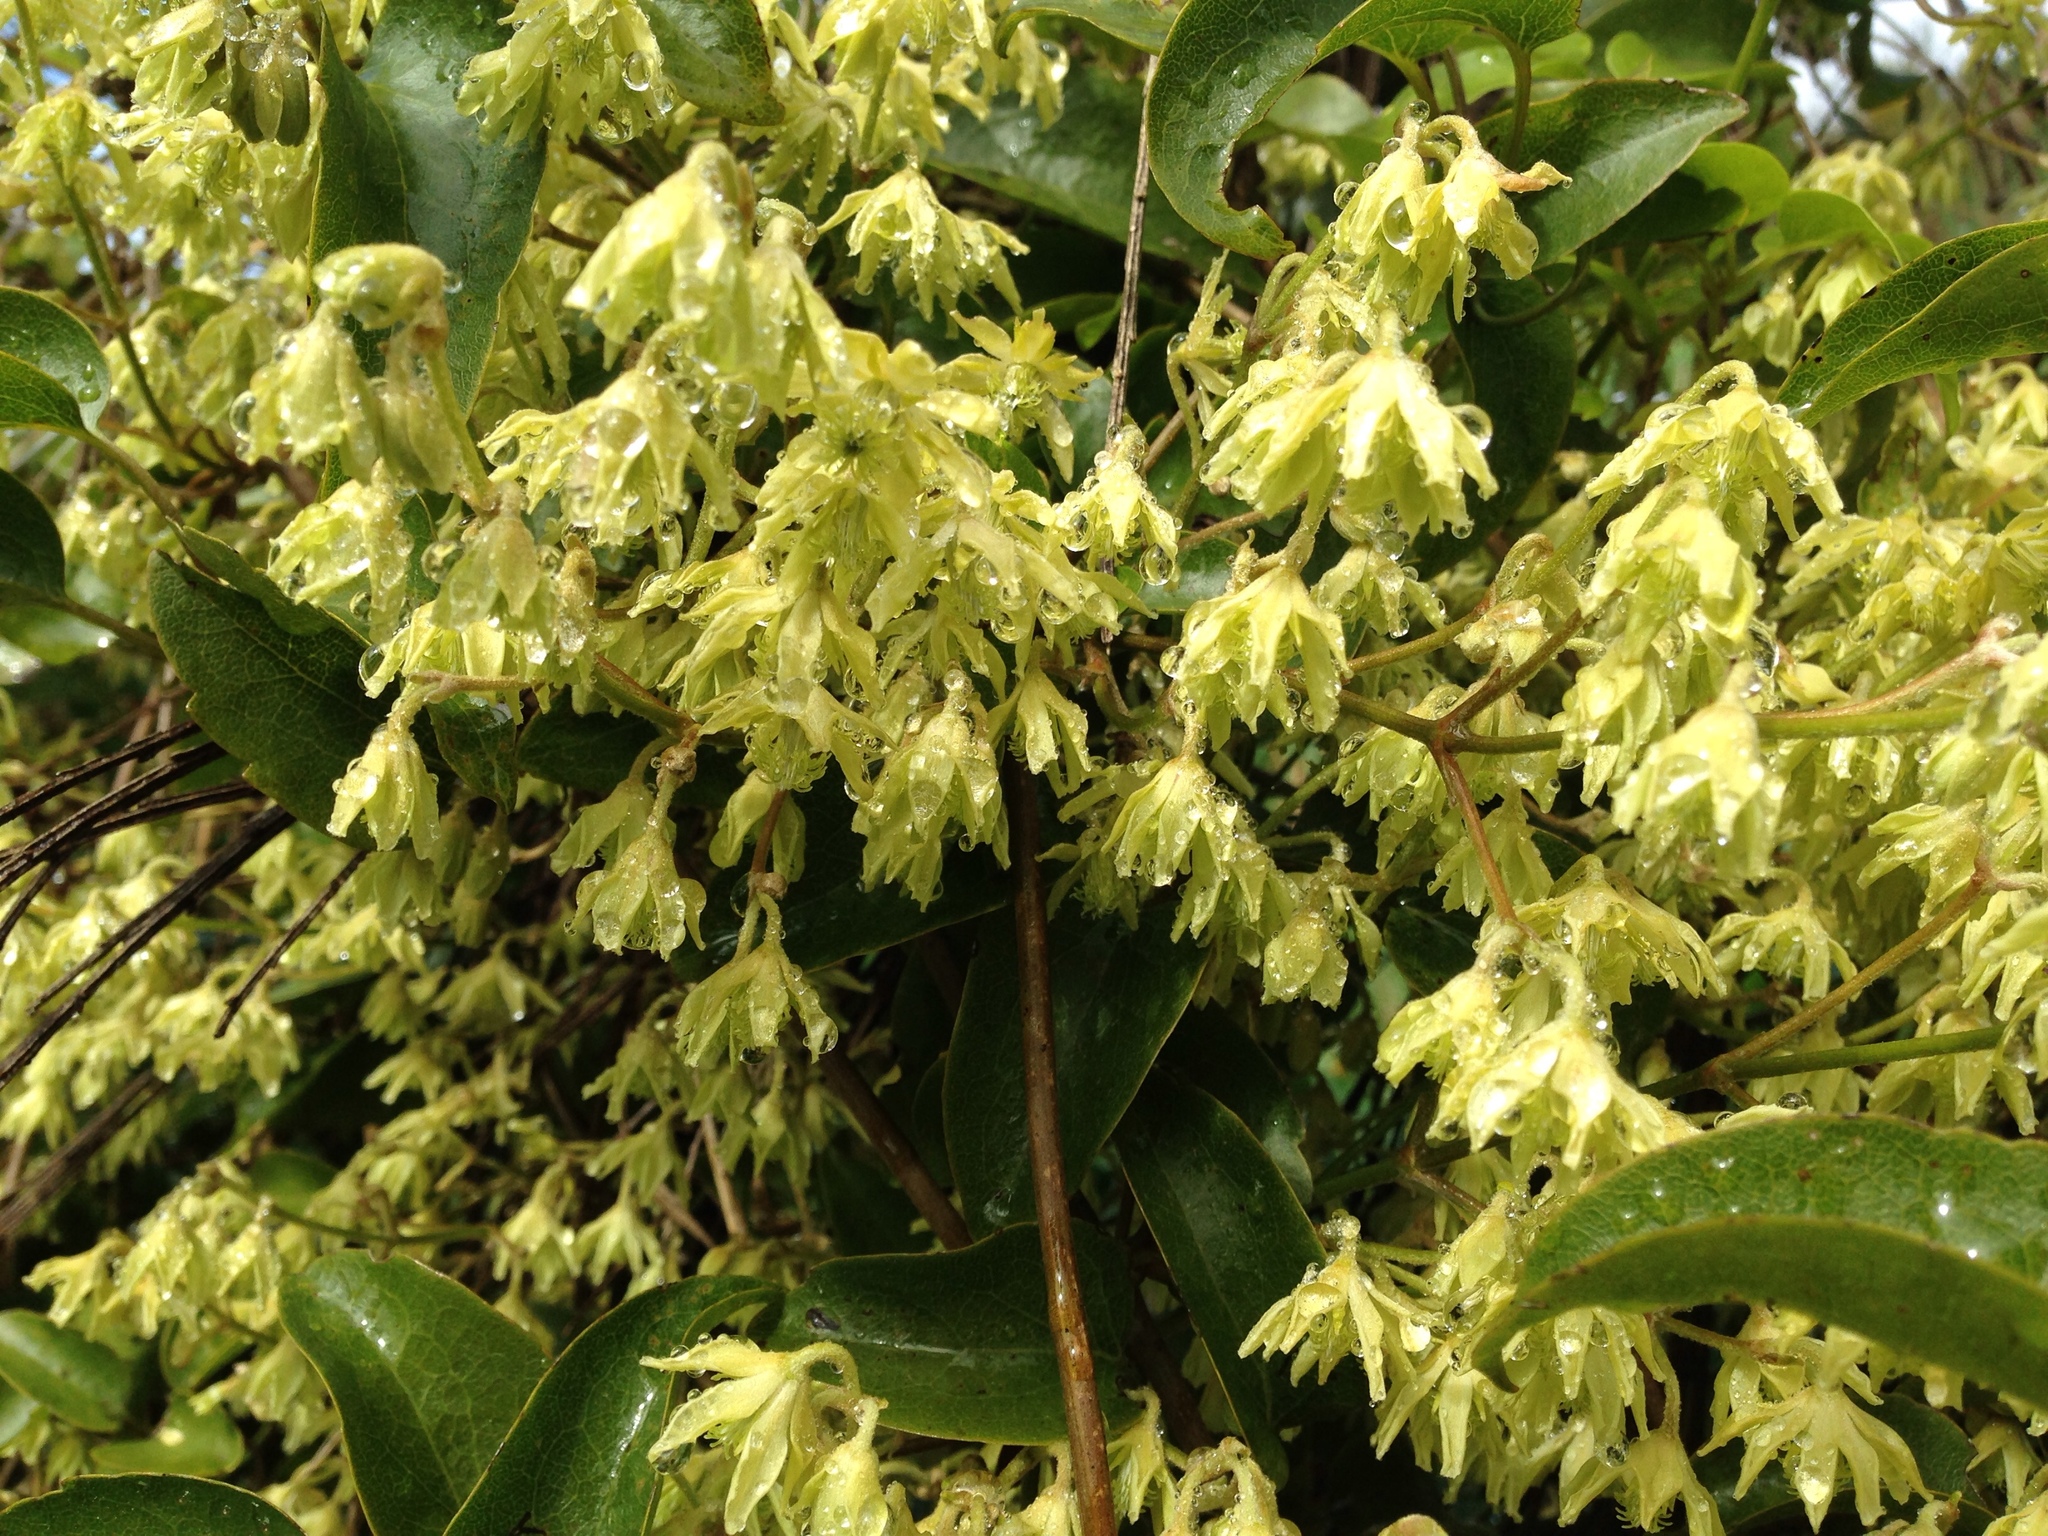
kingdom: Plantae
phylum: Tracheophyta
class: Magnoliopsida
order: Ranunculales
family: Ranunculaceae
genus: Clematis
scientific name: Clematis foetida
